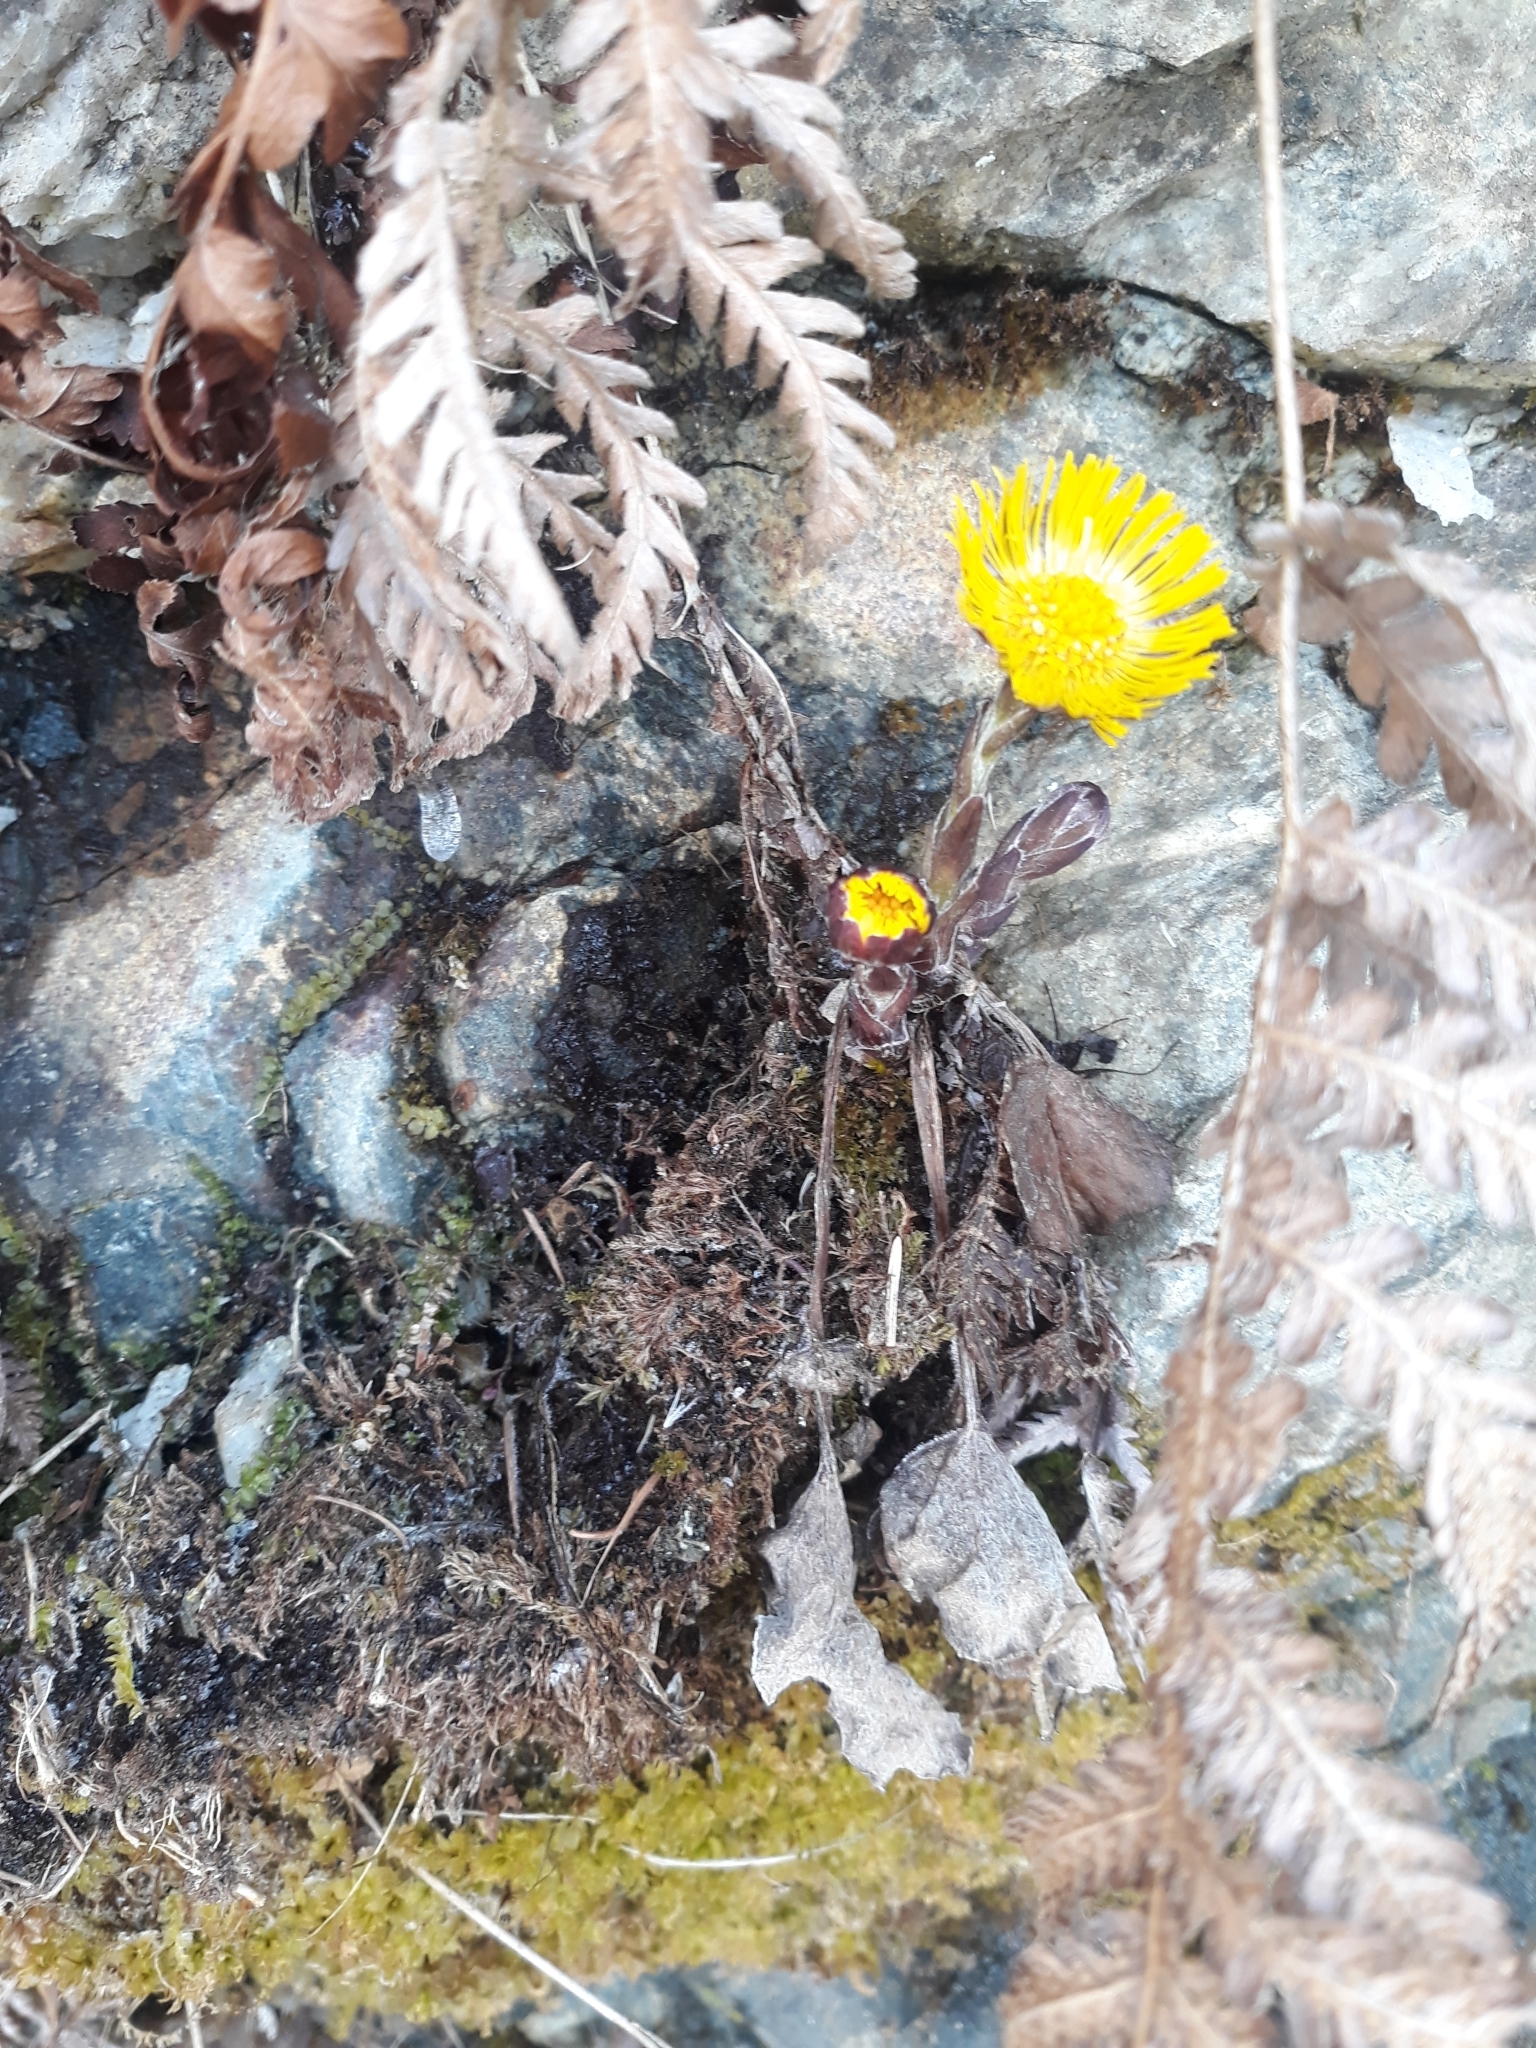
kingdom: Plantae
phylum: Tracheophyta
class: Magnoliopsida
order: Asterales
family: Asteraceae
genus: Tussilago
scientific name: Tussilago farfara
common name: Coltsfoot
